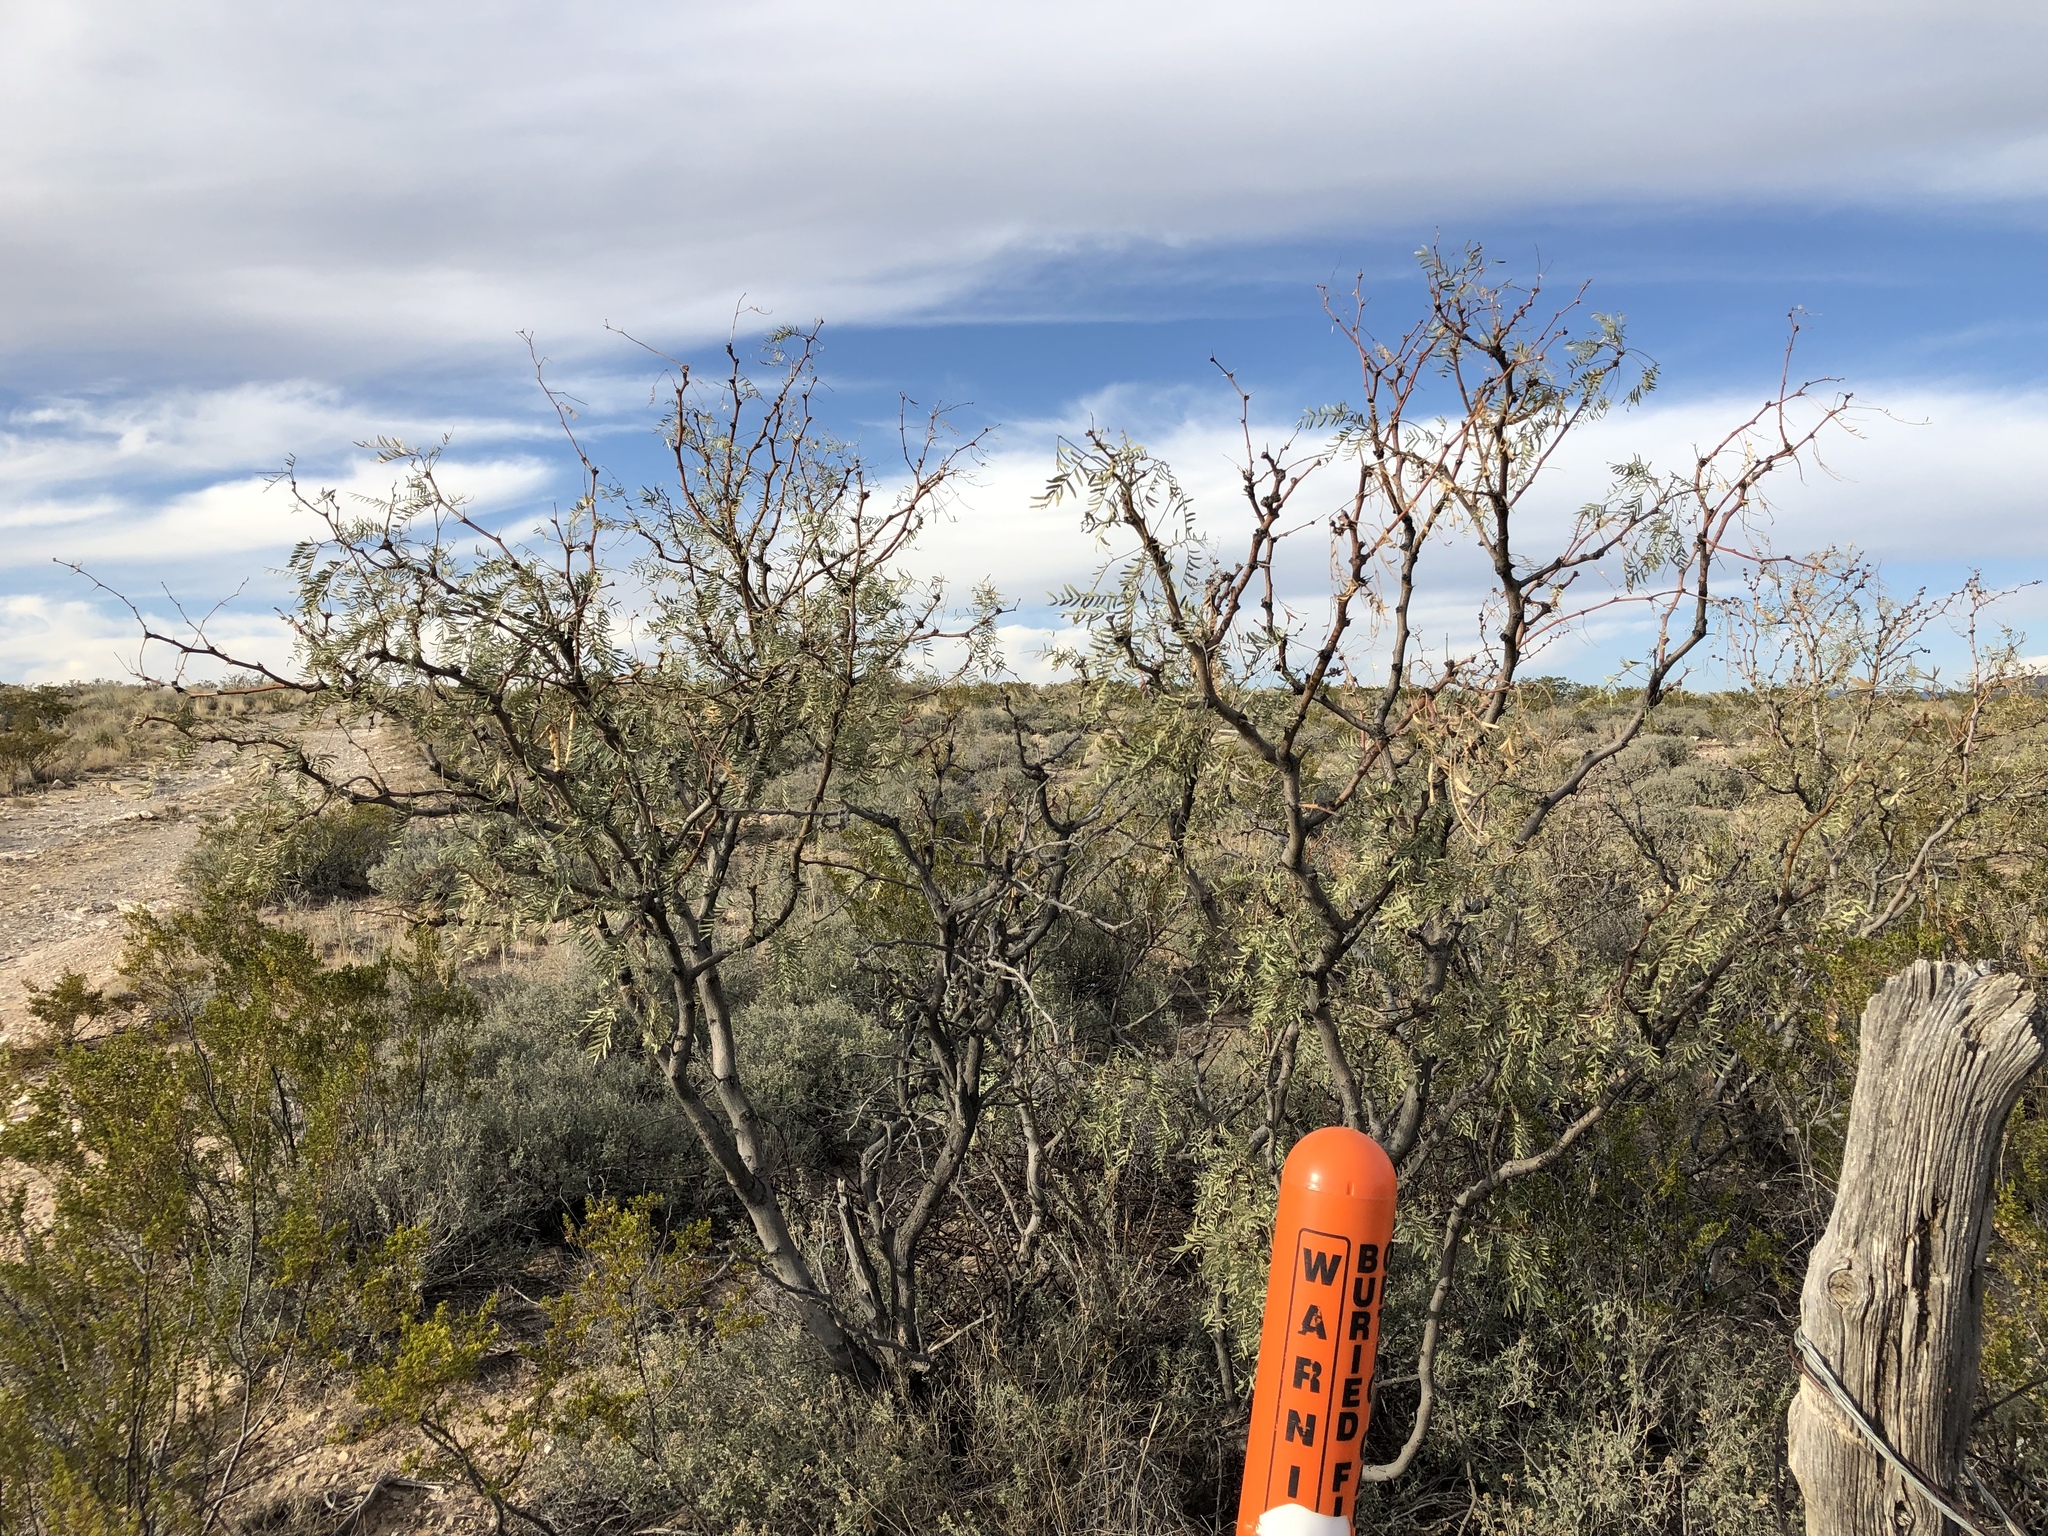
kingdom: Plantae
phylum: Tracheophyta
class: Magnoliopsida
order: Fabales
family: Fabaceae
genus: Prosopis
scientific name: Prosopis glandulosa
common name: Honey mesquite
